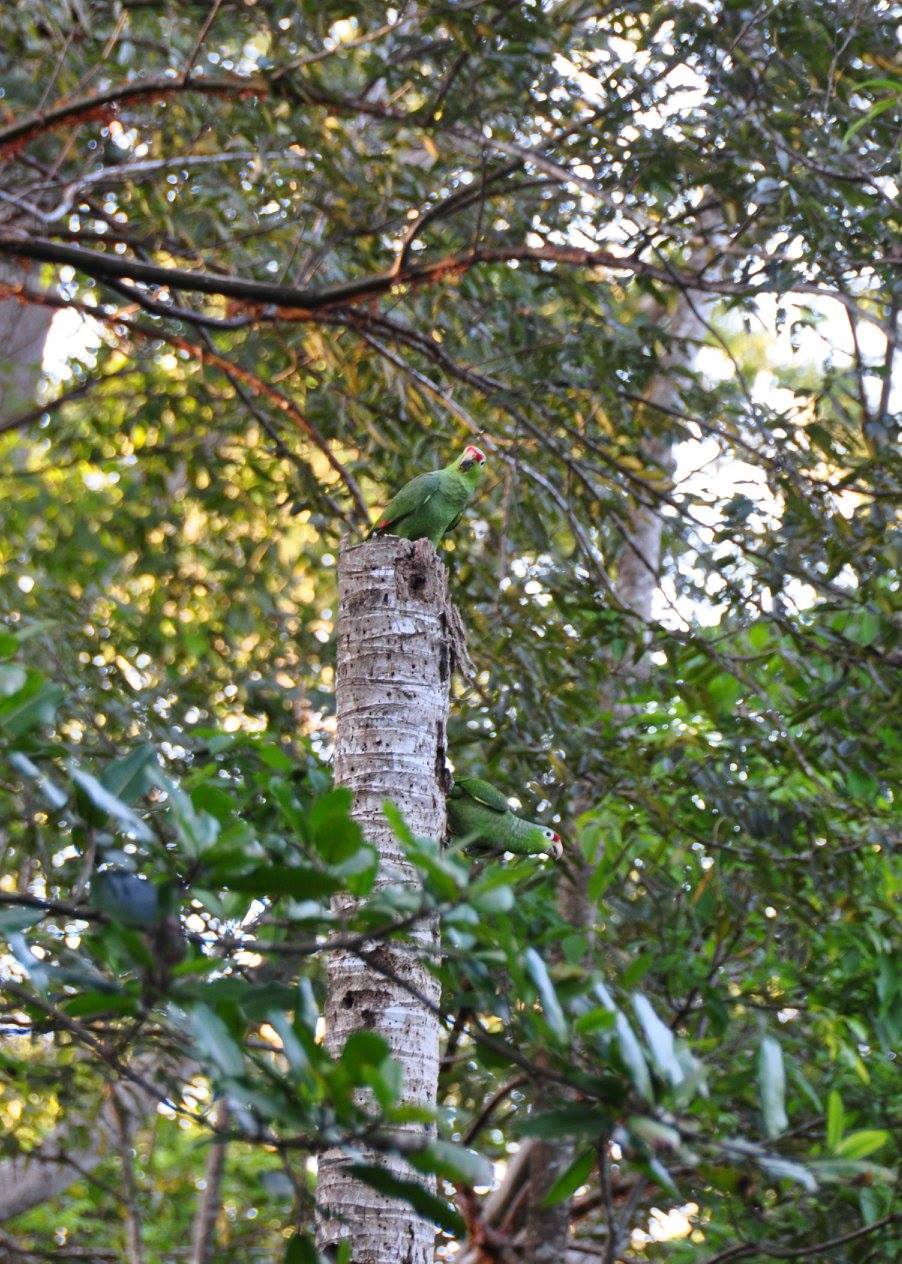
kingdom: Animalia
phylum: Chordata
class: Aves
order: Psittaciformes
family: Psittacidae
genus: Amazona
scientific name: Amazona autumnalis
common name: Red-lored amazon
